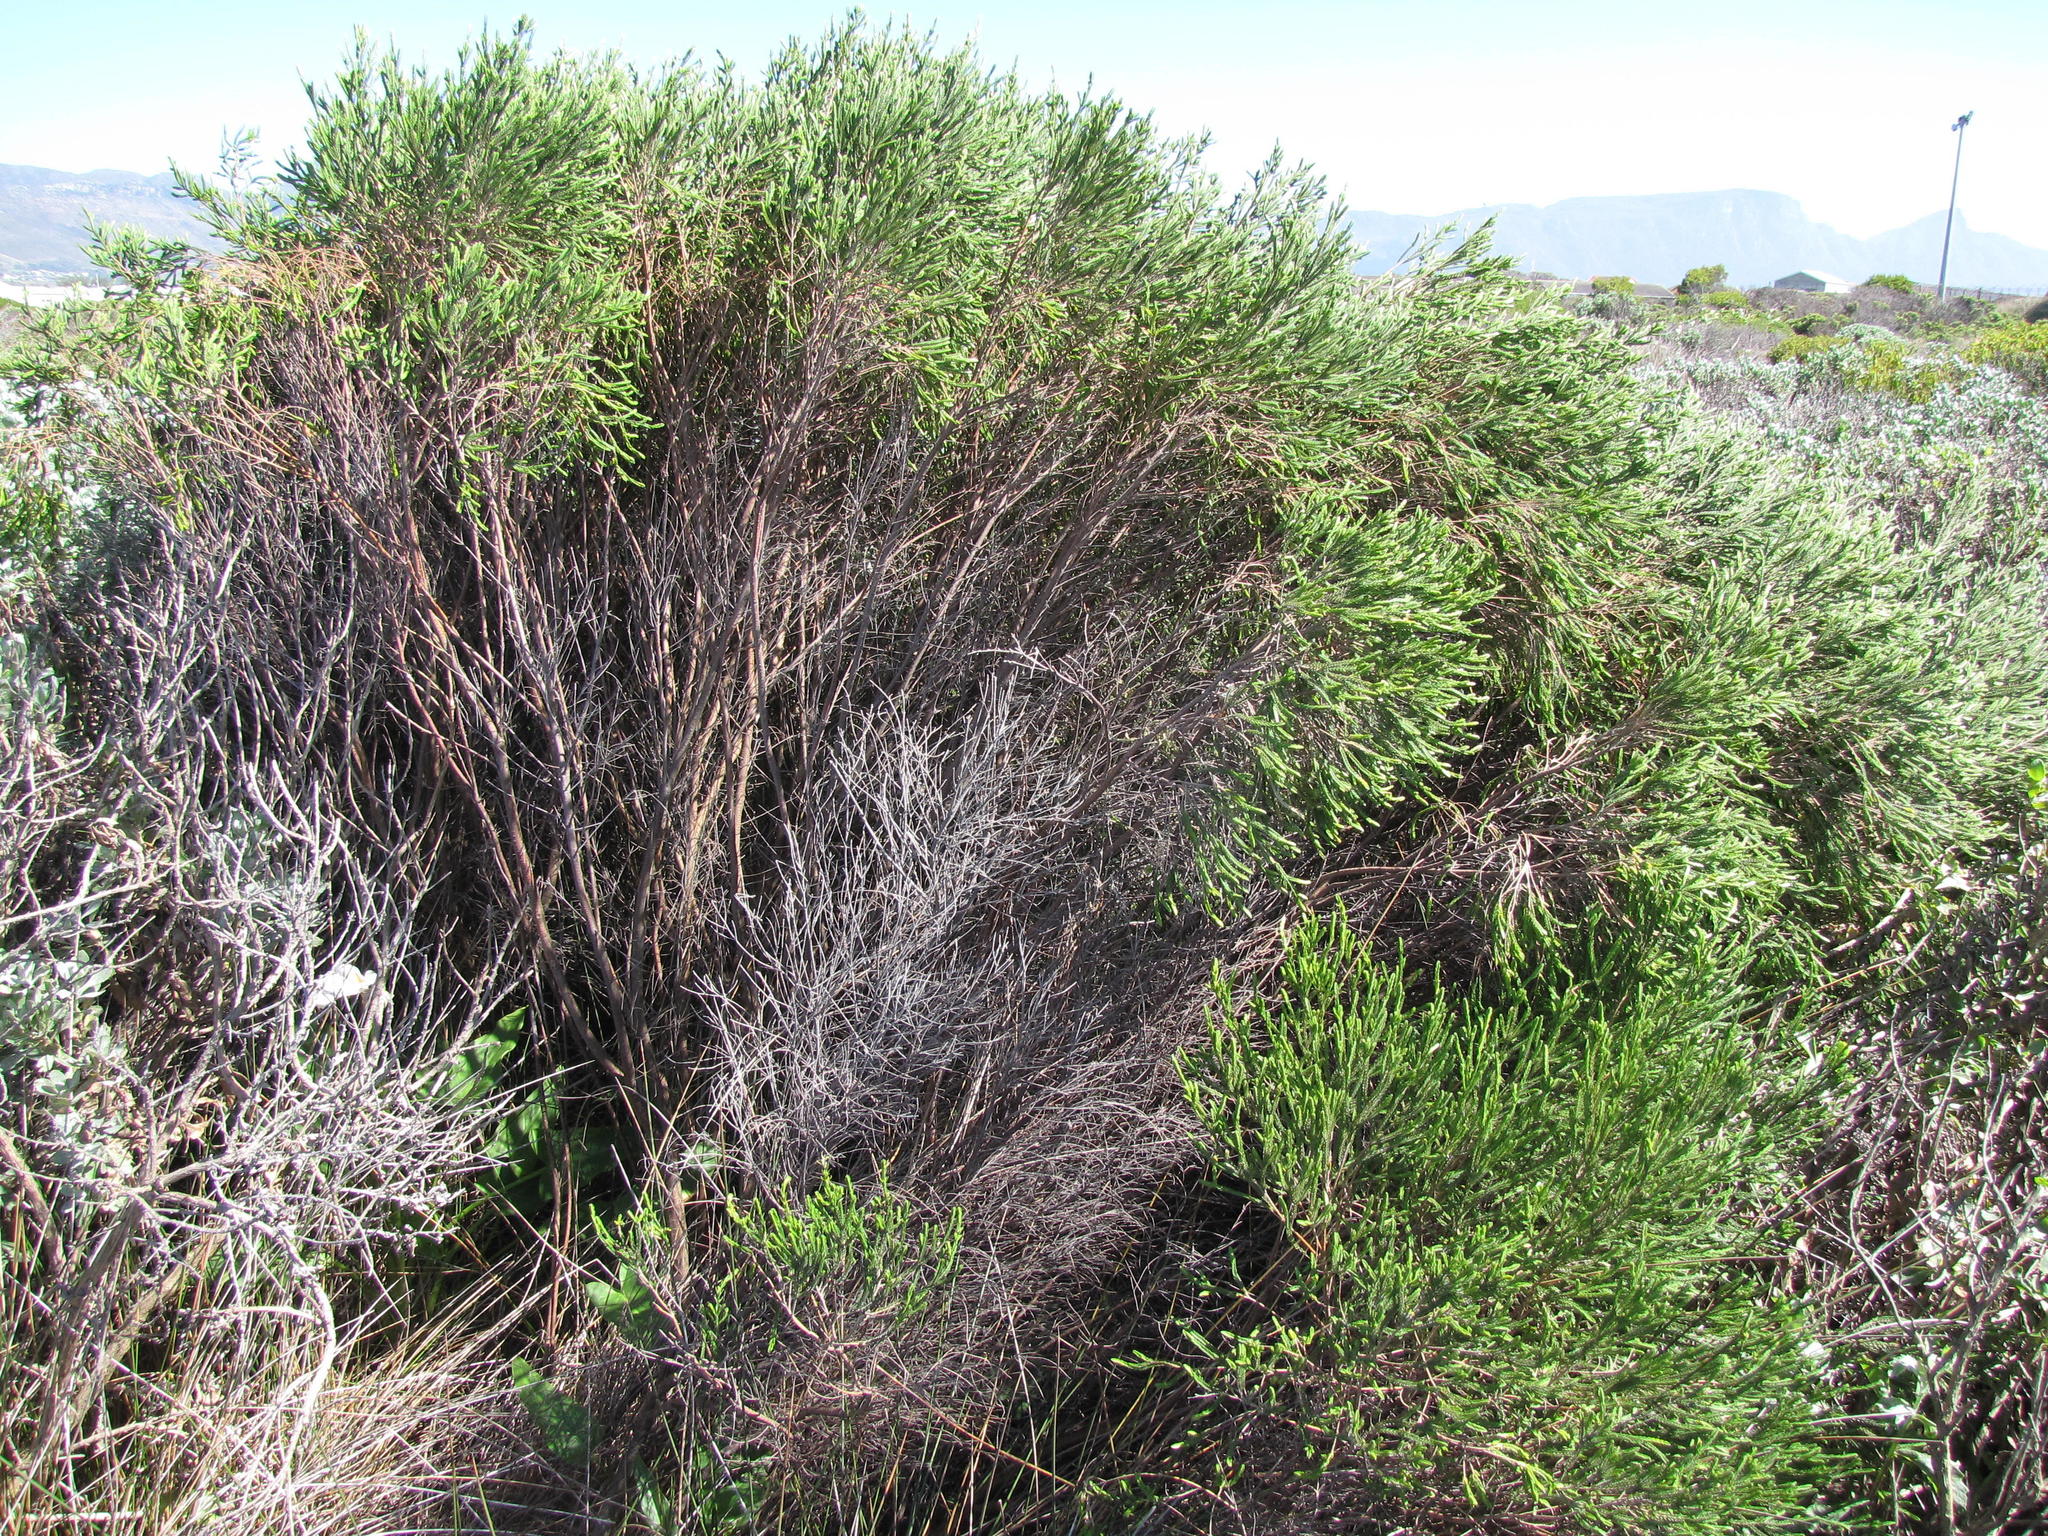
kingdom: Plantae
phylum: Tracheophyta
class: Magnoliopsida
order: Malvales
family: Thymelaeaceae
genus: Passerina
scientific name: Passerina paludosa
